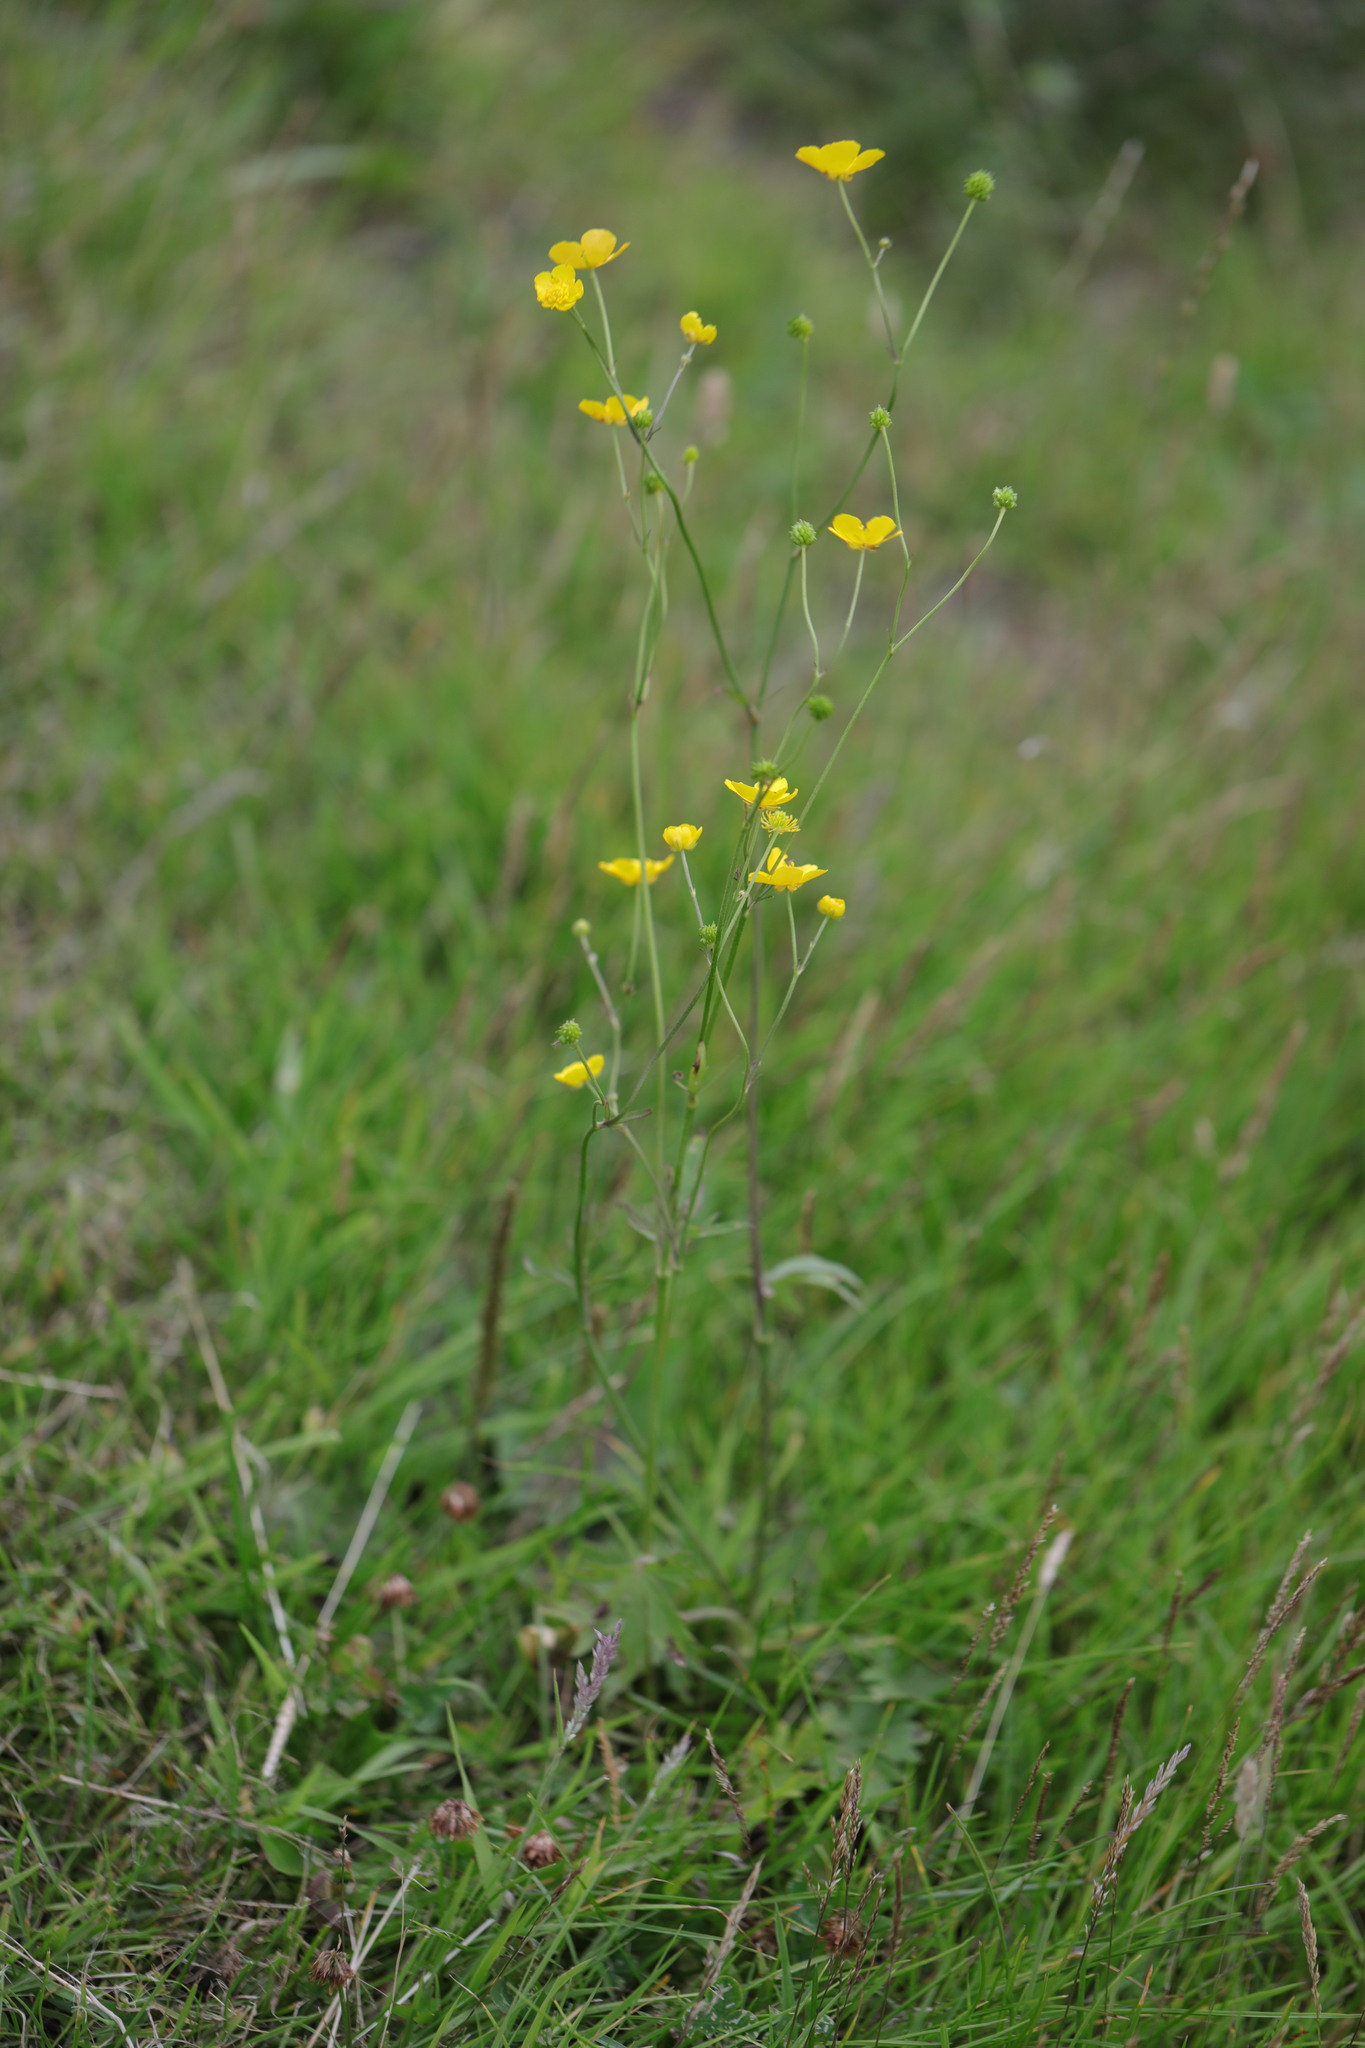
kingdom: Plantae
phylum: Tracheophyta
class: Magnoliopsida
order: Ranunculales
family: Ranunculaceae
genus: Ranunculus
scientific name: Ranunculus acris
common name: Meadow buttercup
